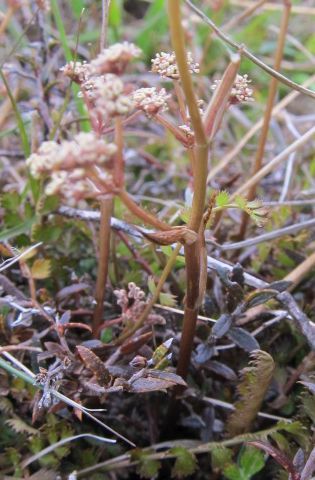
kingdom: Plantae
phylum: Tracheophyta
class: Magnoliopsida
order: Apiales
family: Apiaceae
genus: Anisotome
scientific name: Anisotome aromatica
